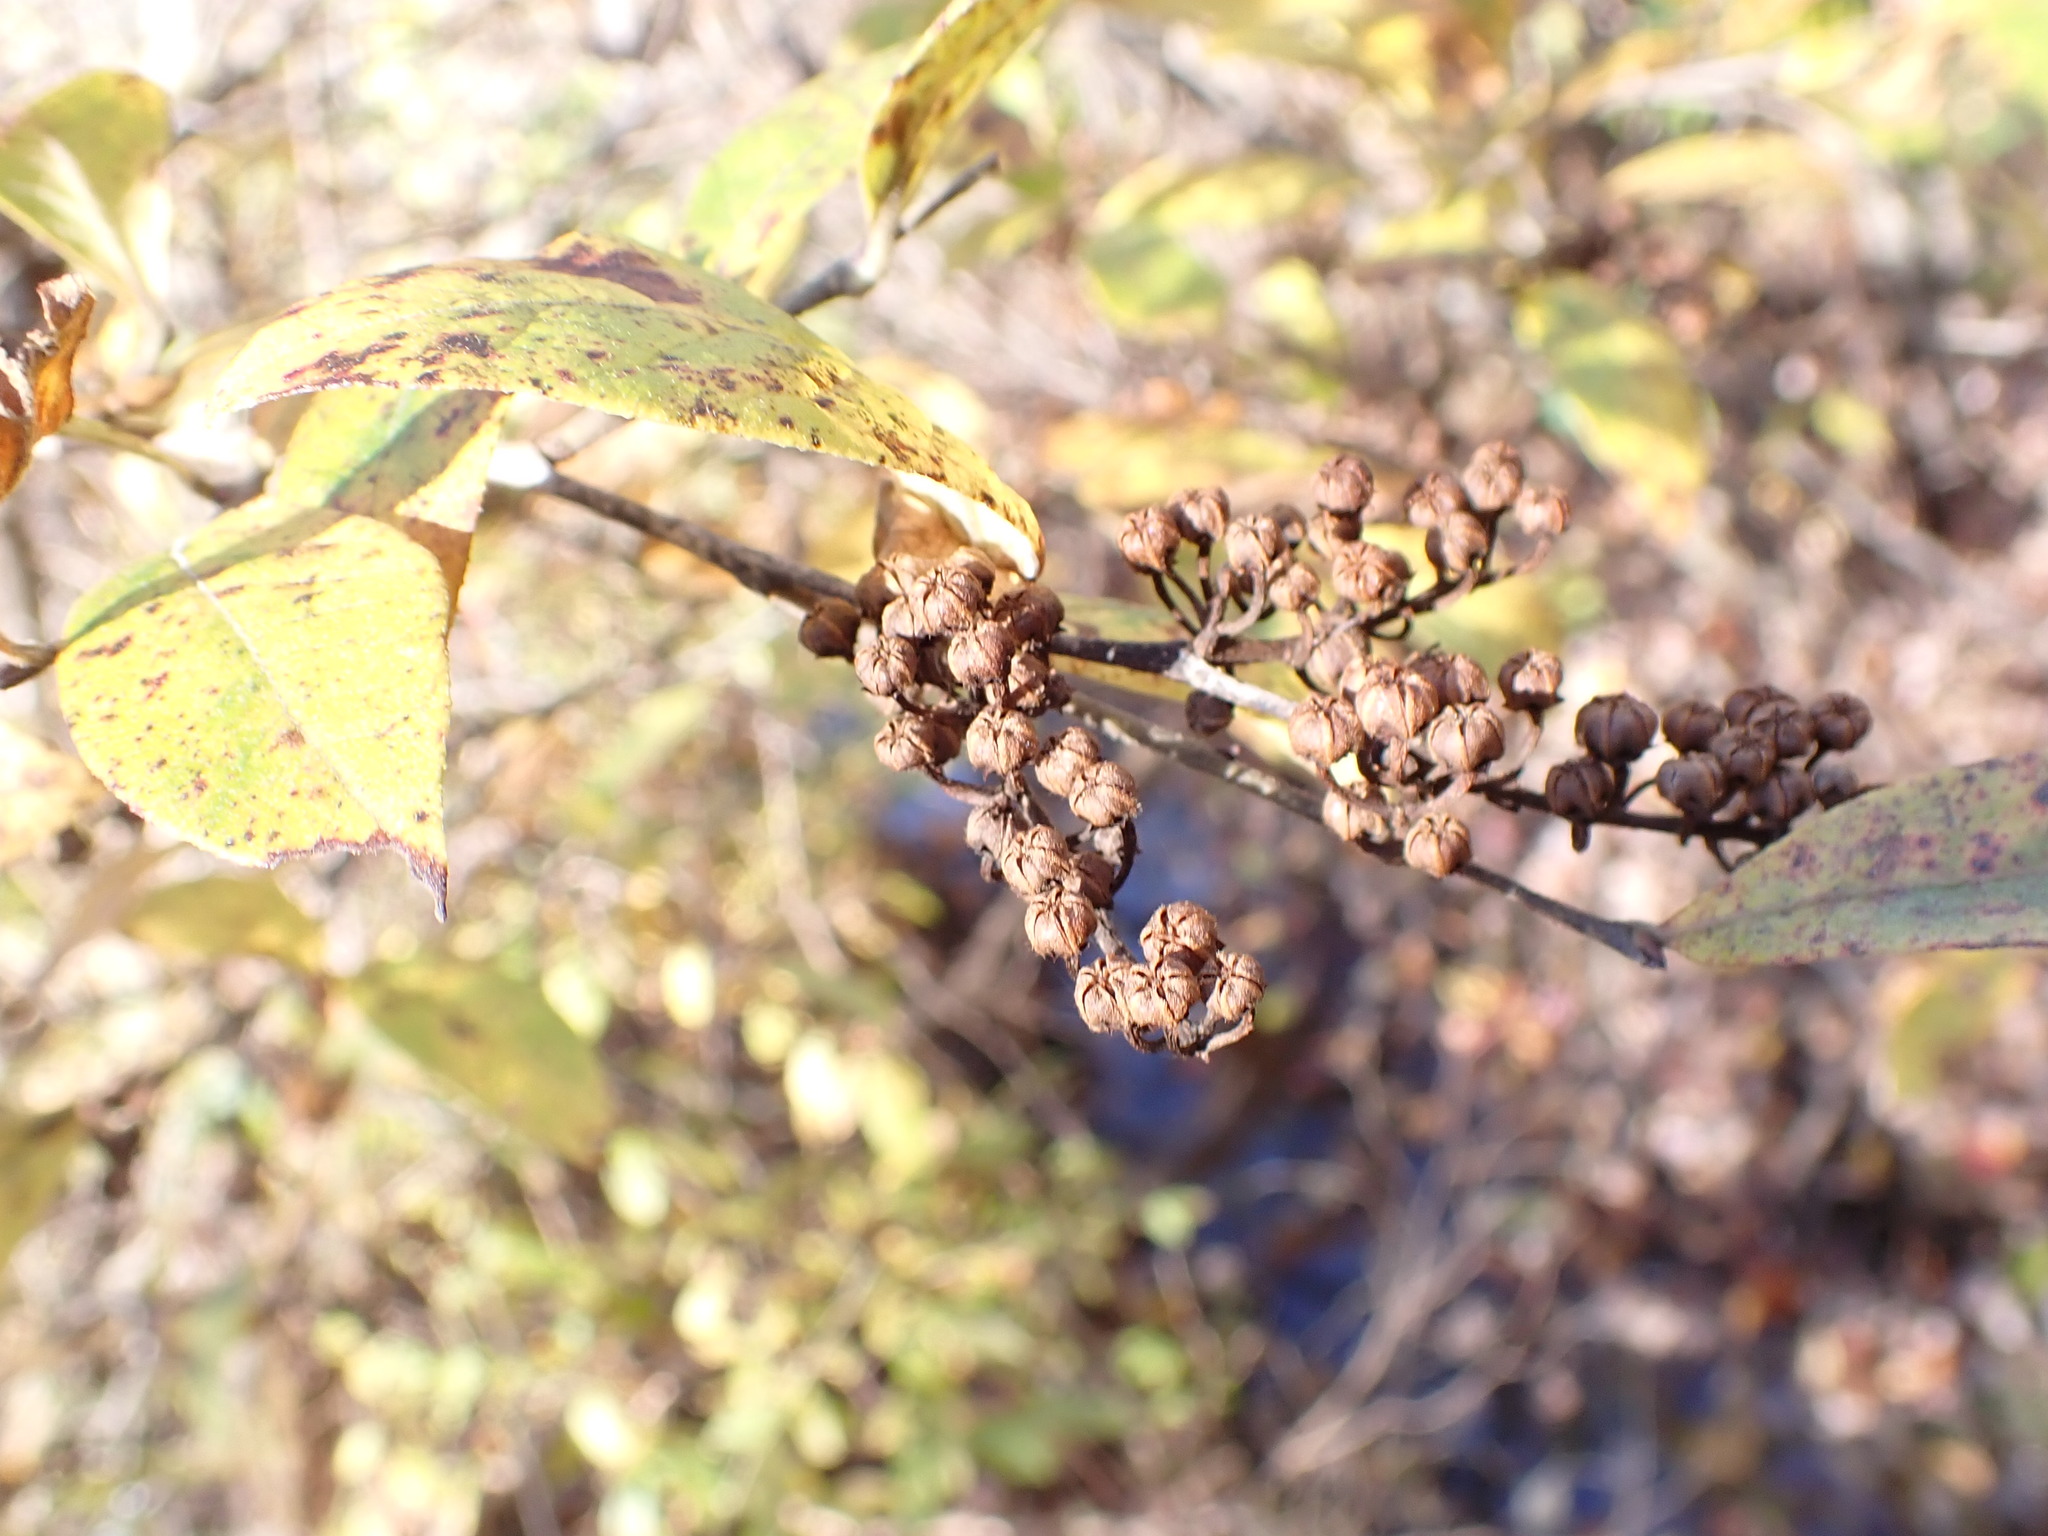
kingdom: Plantae
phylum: Tracheophyta
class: Magnoliopsida
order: Ericales
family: Ericaceae
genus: Lyonia
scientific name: Lyonia ligustrina
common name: Maleberry
